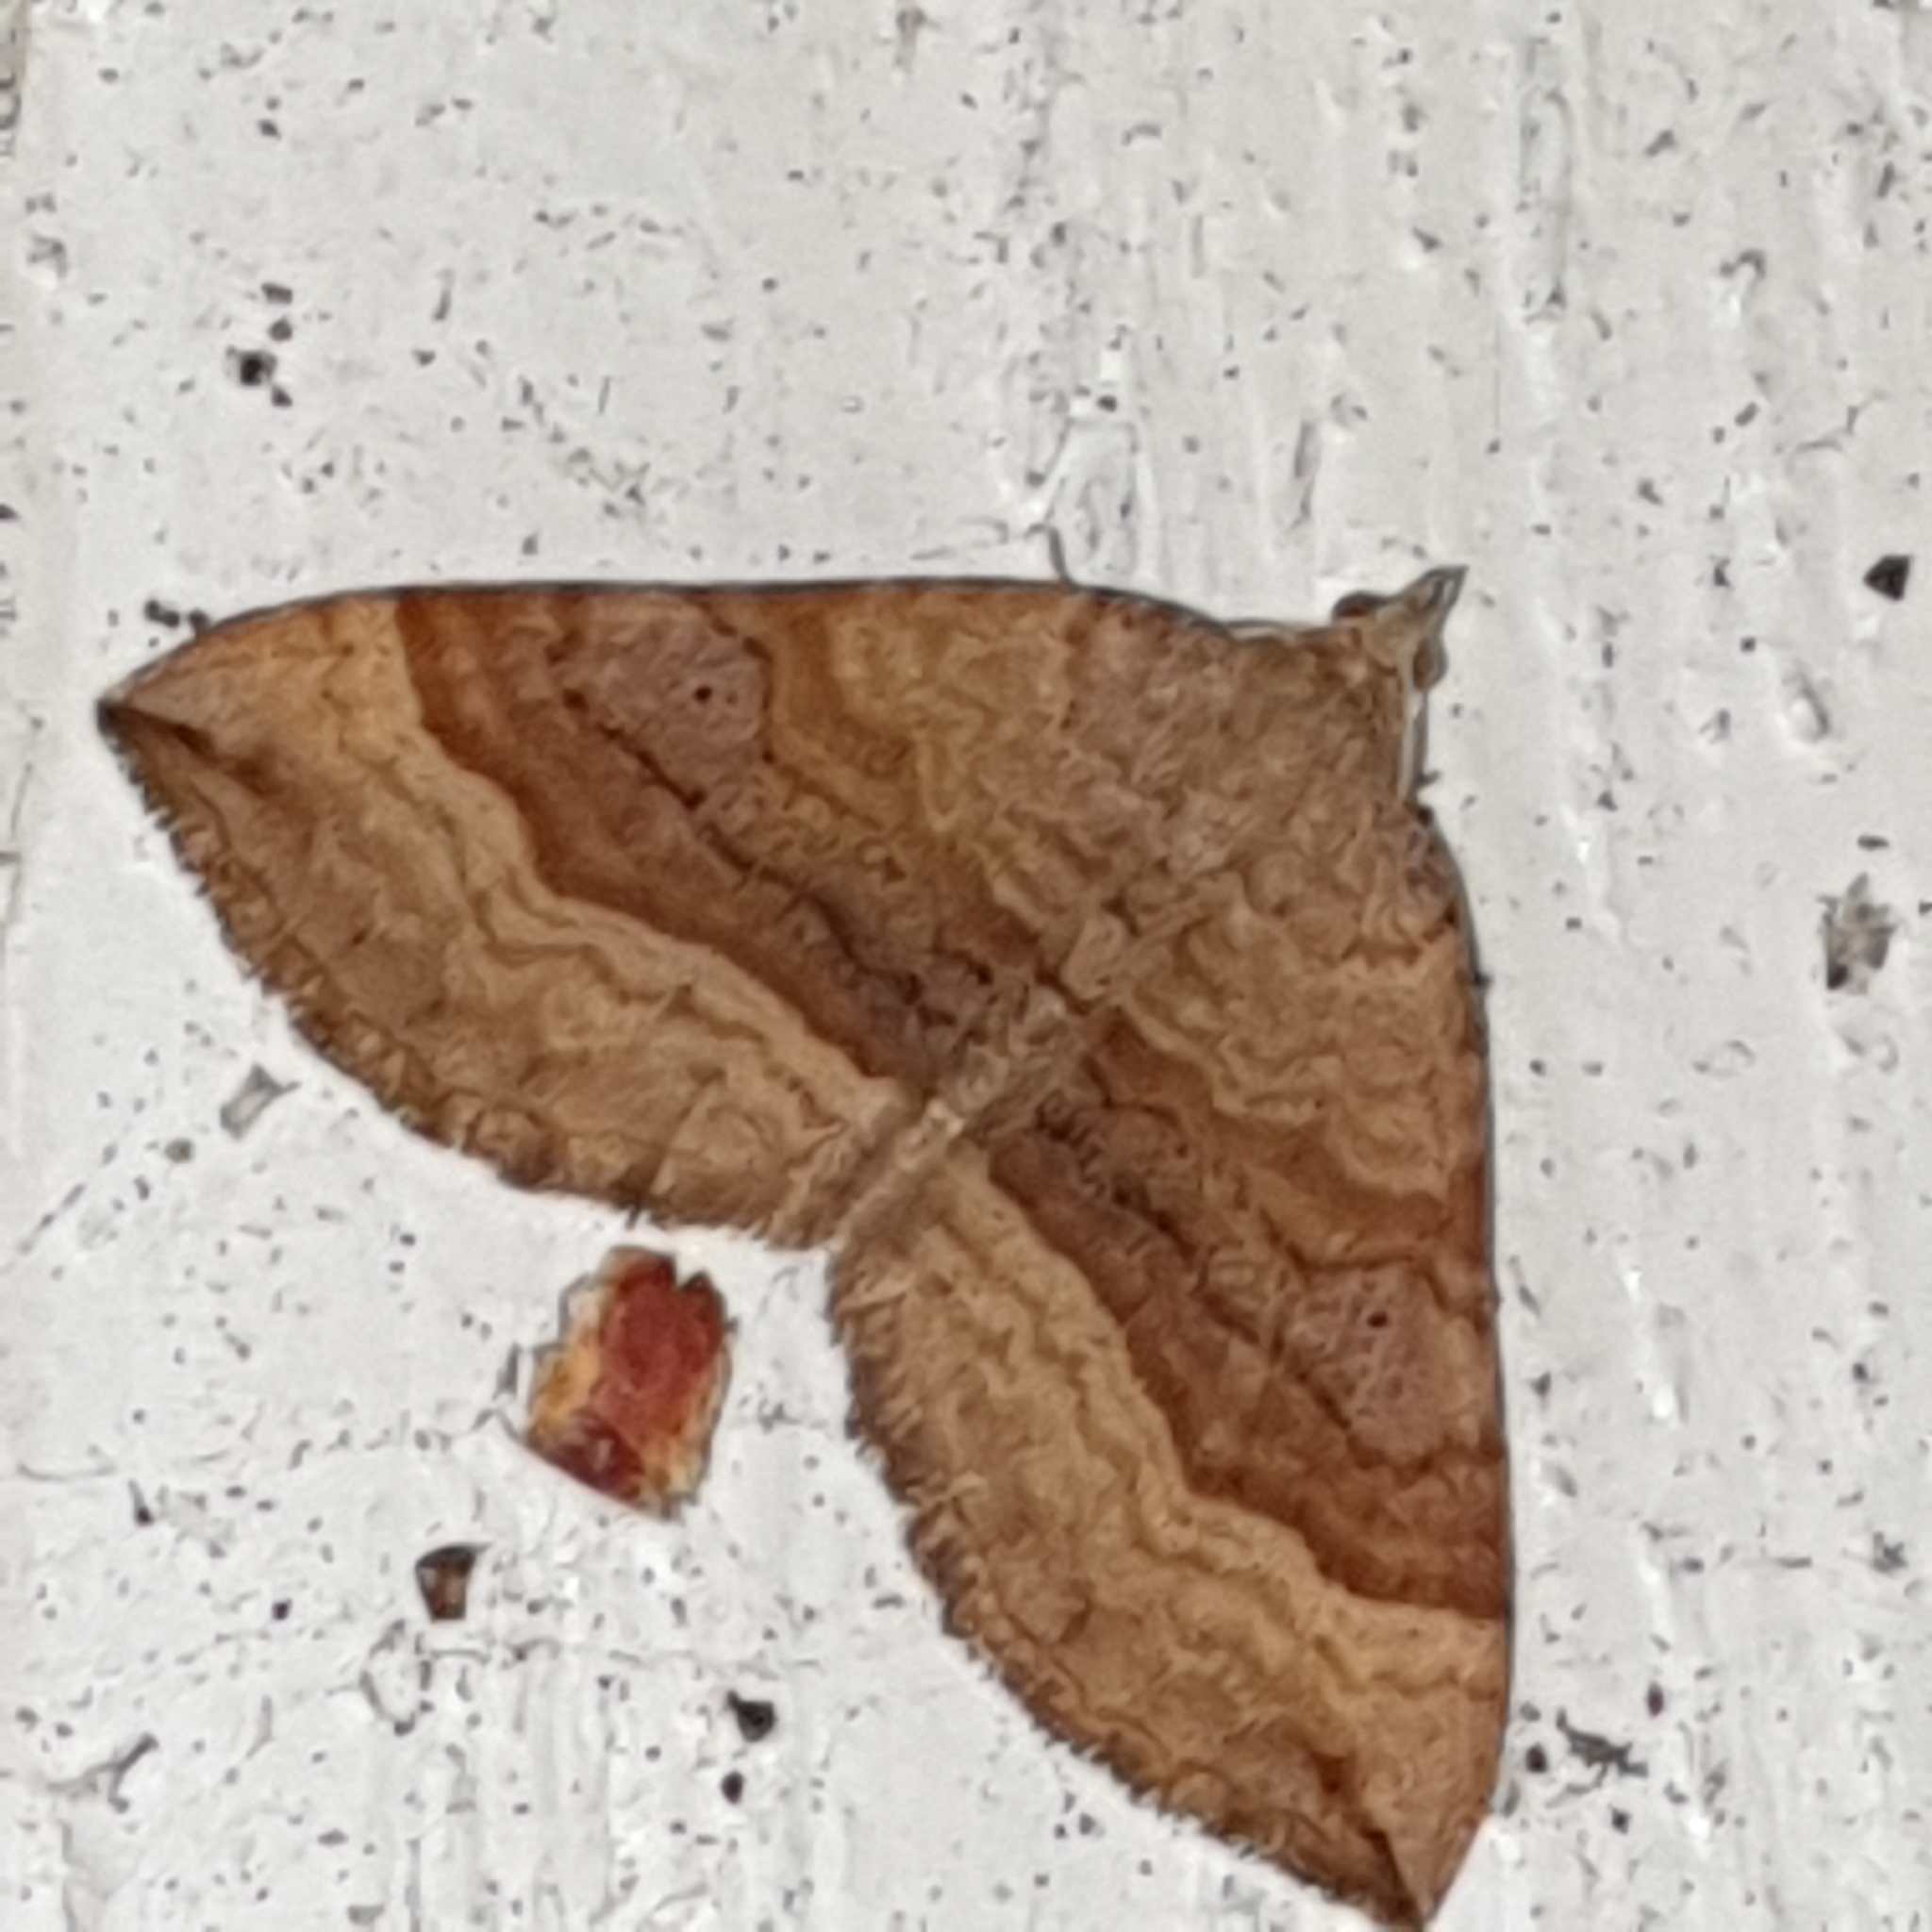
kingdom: Animalia
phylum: Arthropoda
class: Insecta
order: Lepidoptera
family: Geometridae
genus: Scotopteryx
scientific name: Scotopteryx chenopodiata
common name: Shaded broad-bar
